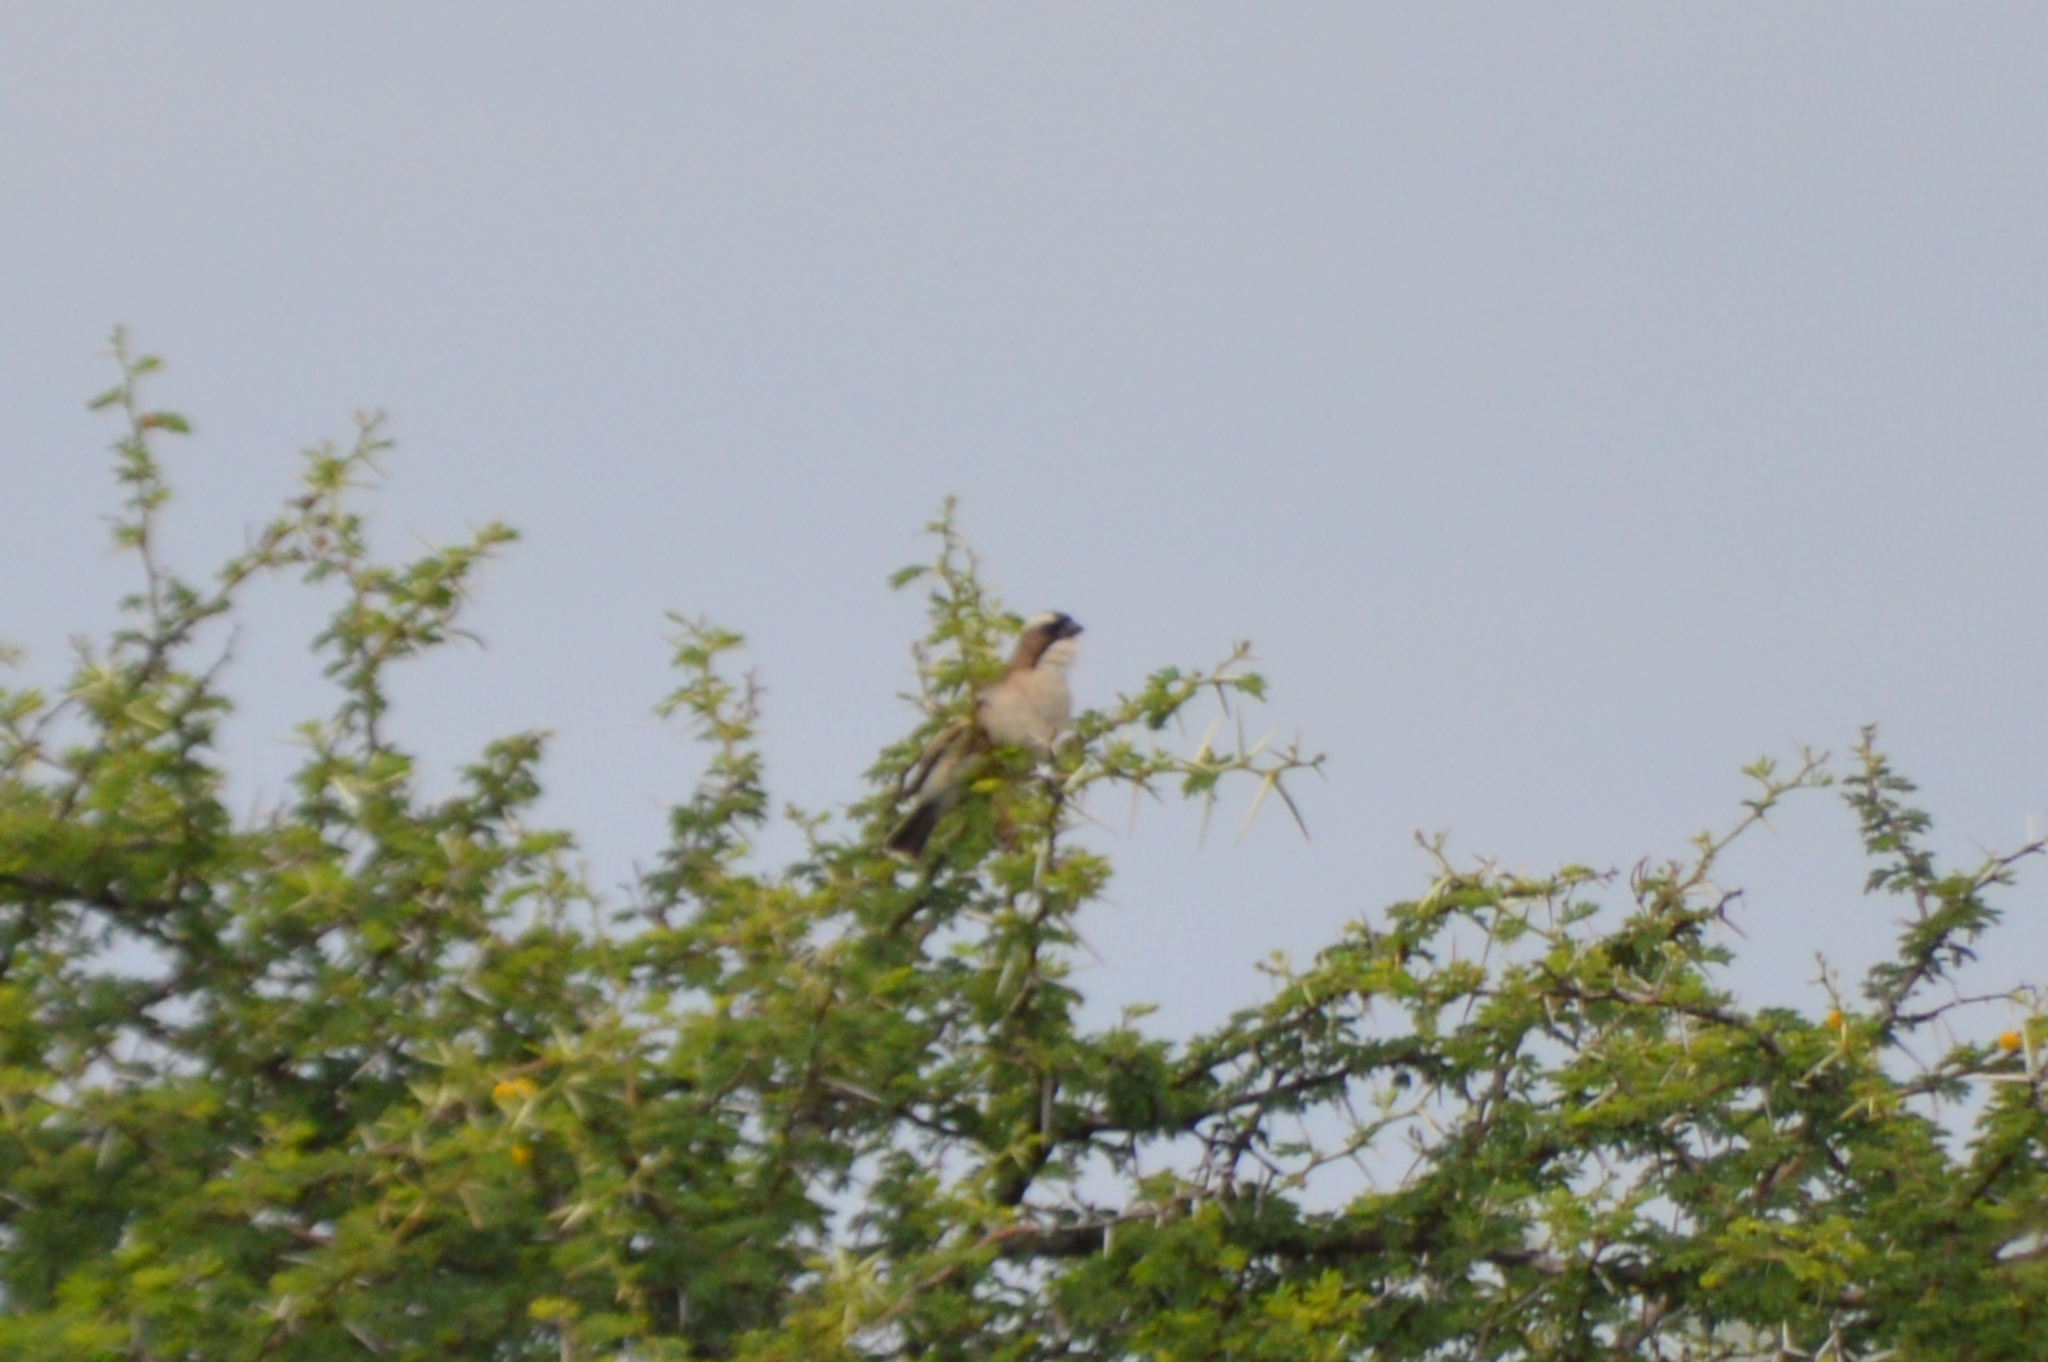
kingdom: Animalia
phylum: Chordata
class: Aves
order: Passeriformes
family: Passeridae
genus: Plocepasser
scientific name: Plocepasser mahali
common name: White-browed sparrow-weaver
